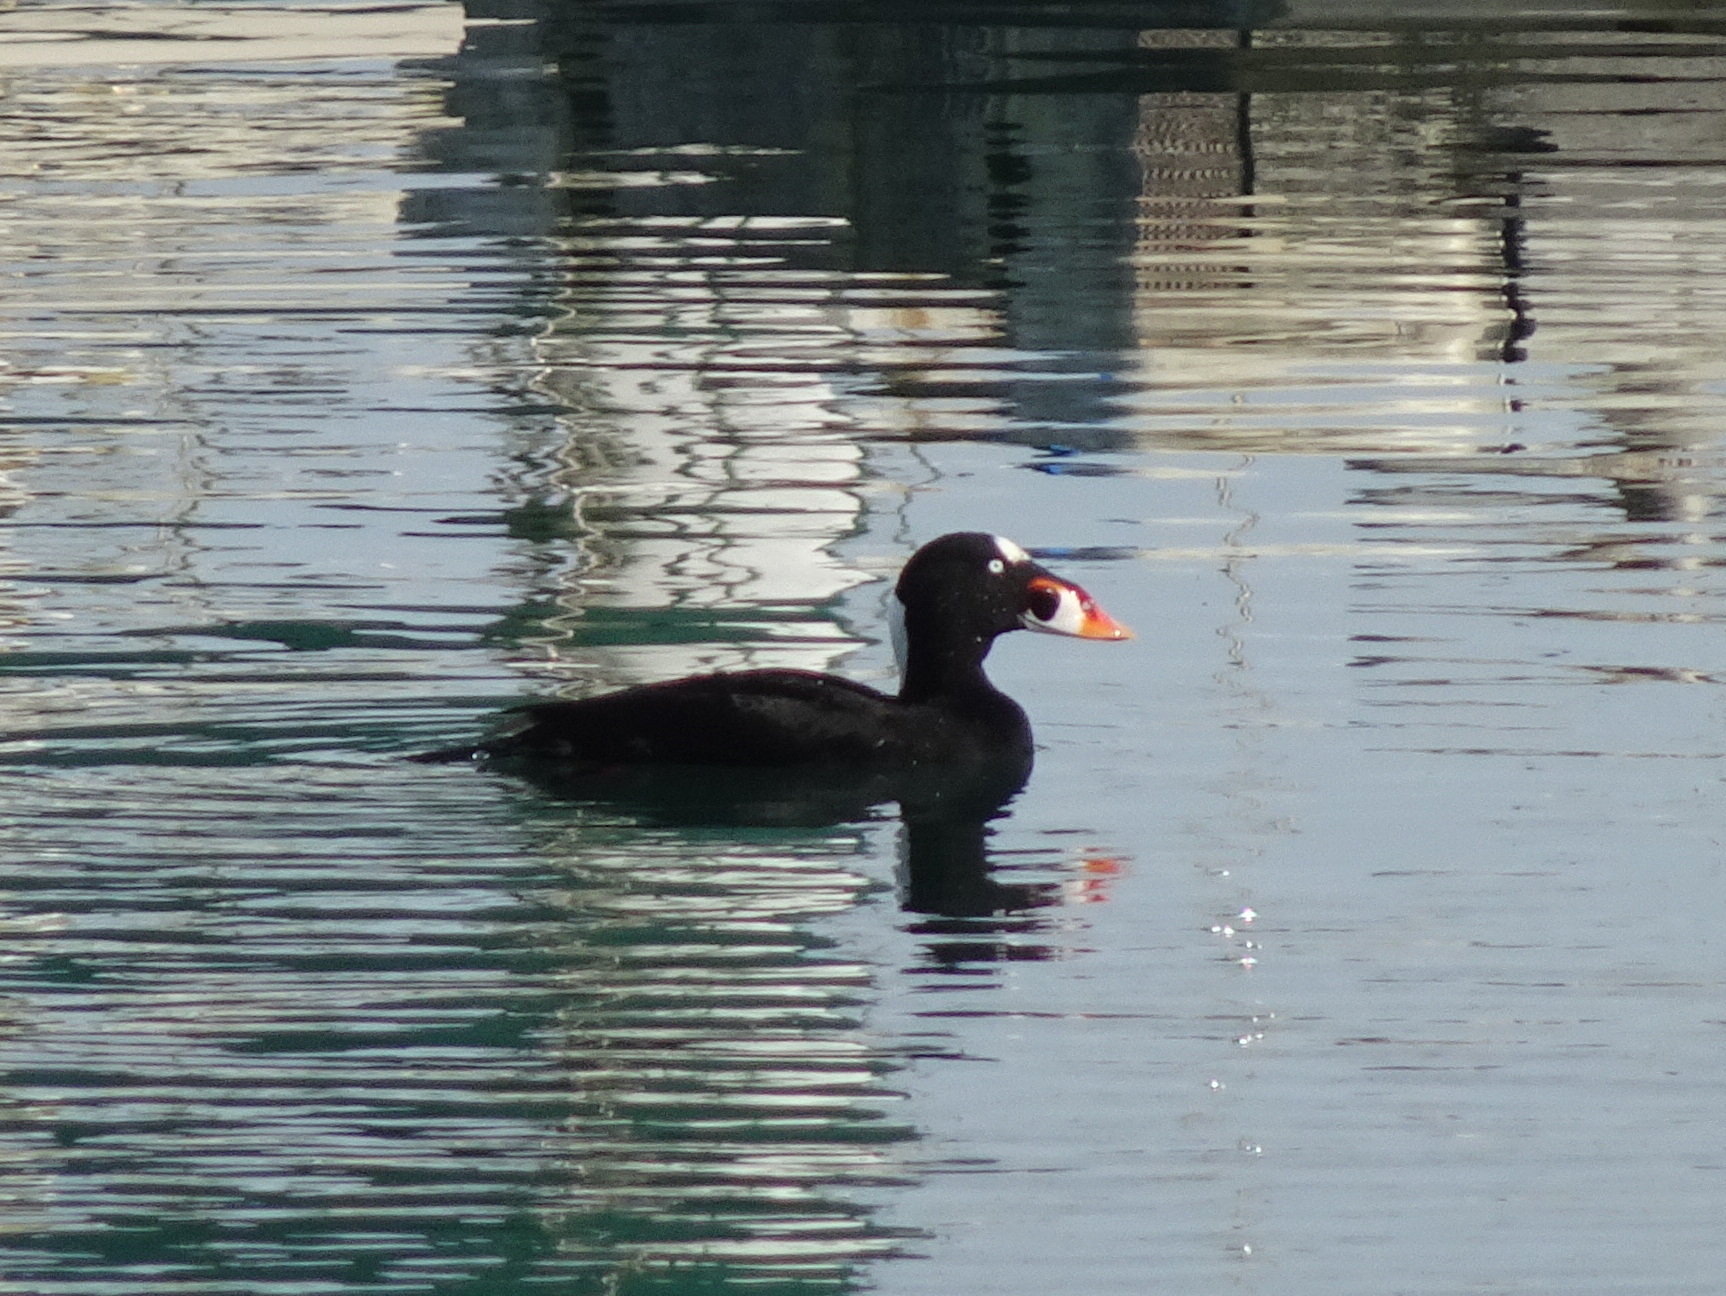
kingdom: Animalia
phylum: Chordata
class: Aves
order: Anseriformes
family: Anatidae
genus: Melanitta
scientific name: Melanitta perspicillata
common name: Surf scoter
